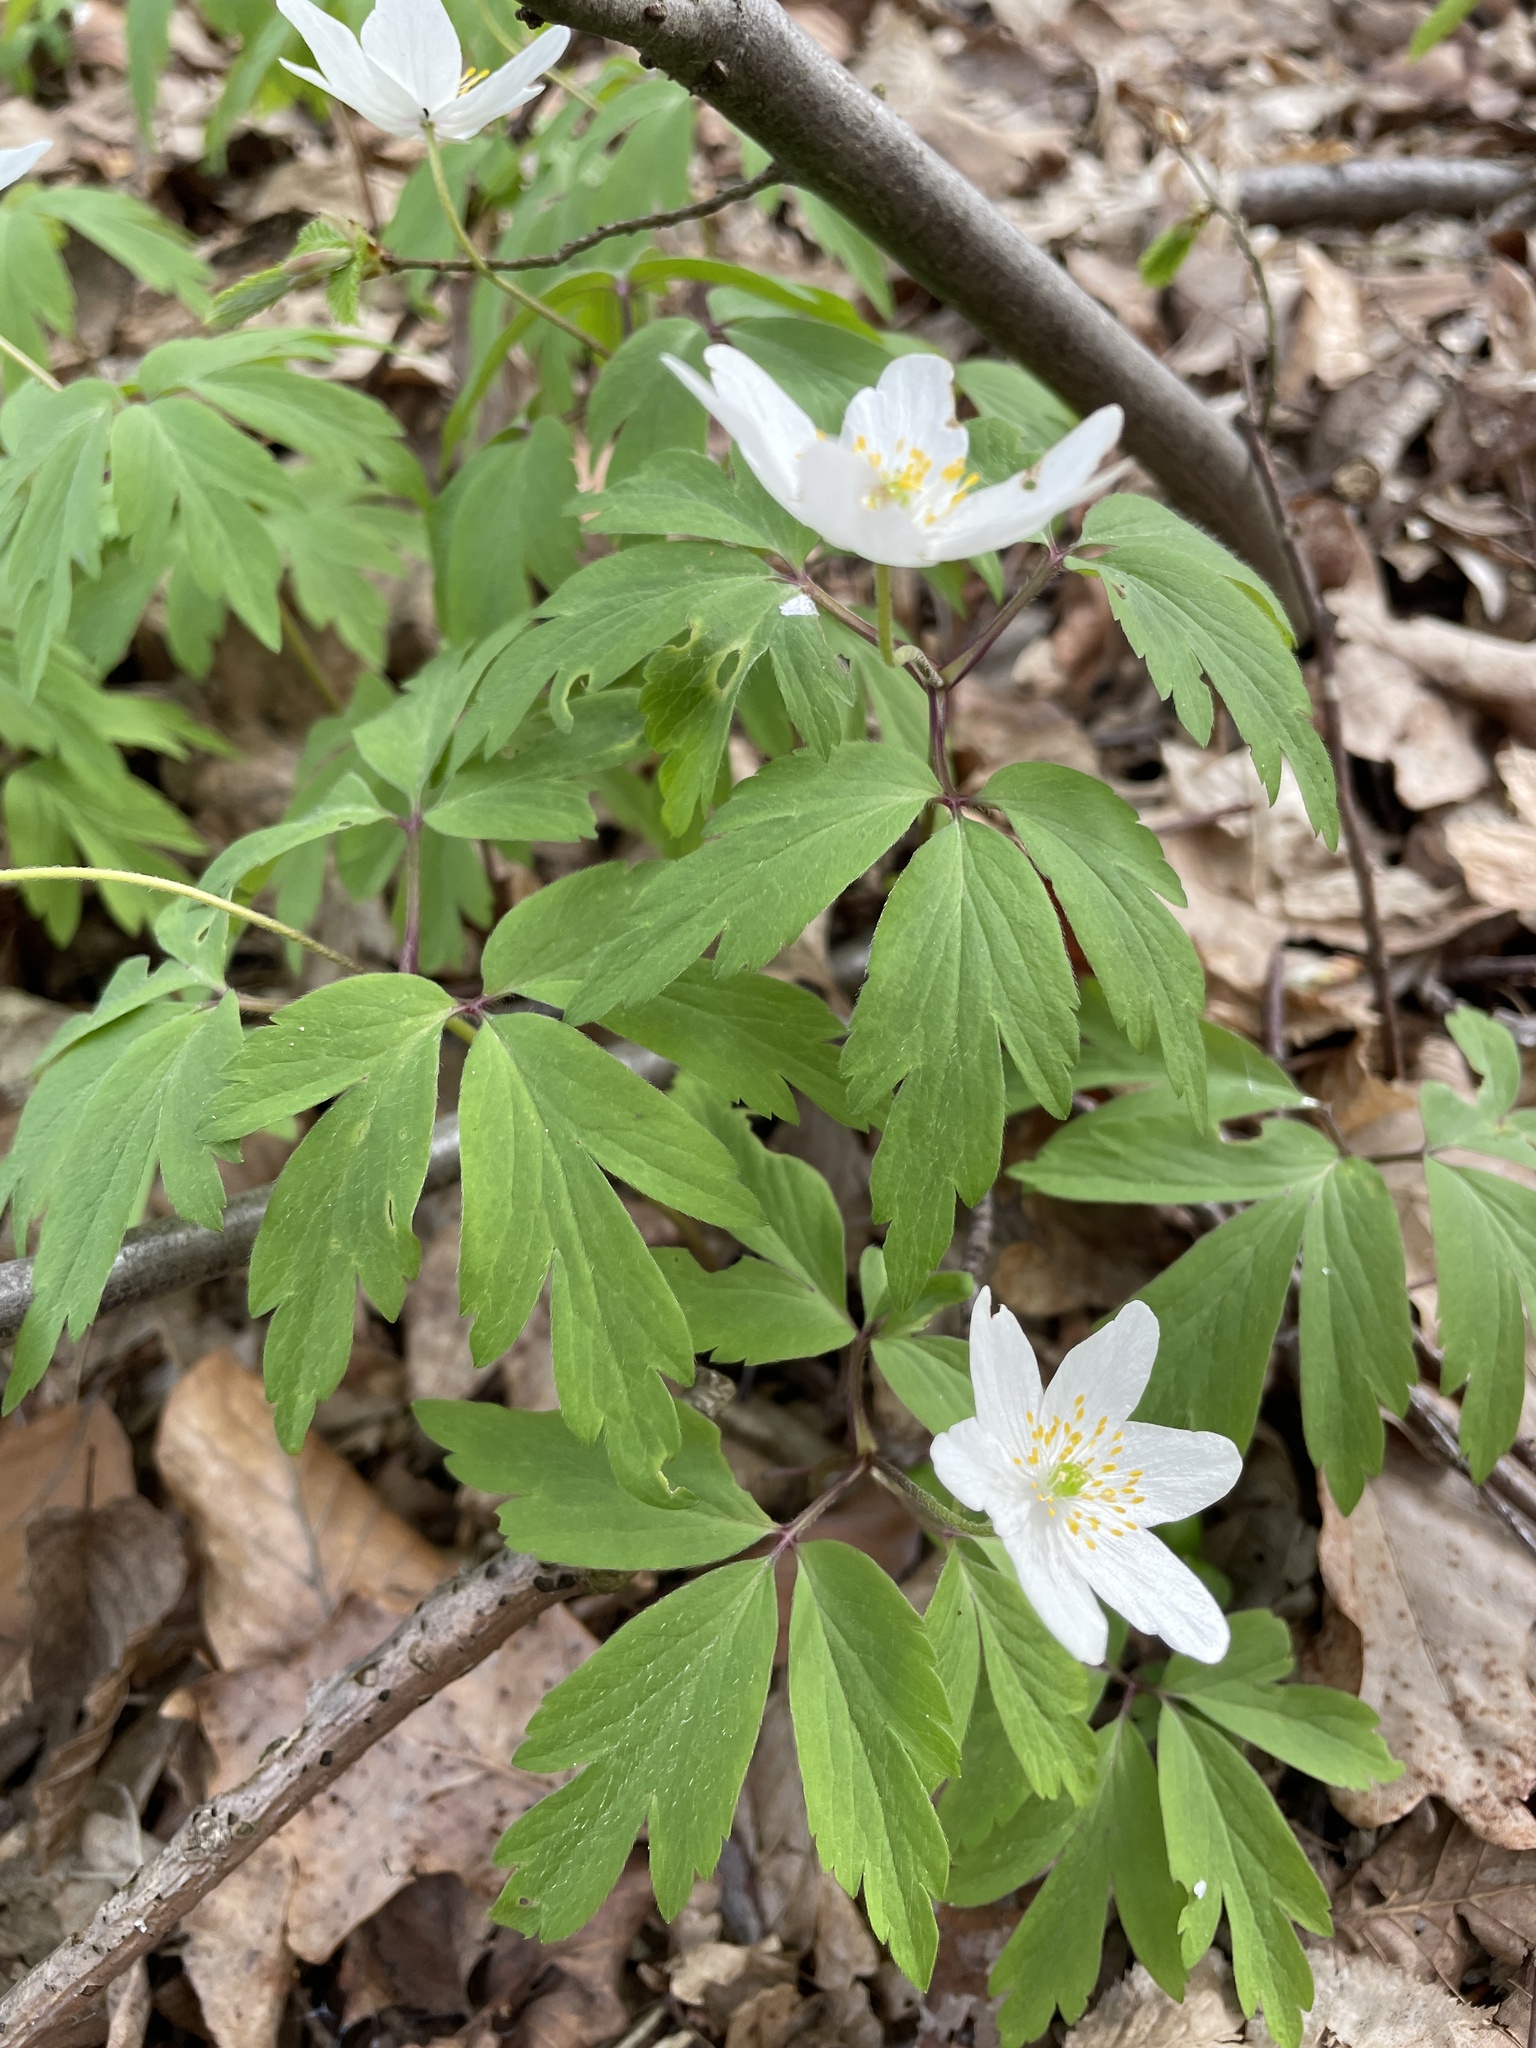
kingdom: Plantae
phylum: Tracheophyta
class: Magnoliopsida
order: Ranunculales
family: Ranunculaceae
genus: Anemone
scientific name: Anemone nemorosa
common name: Wood anemone
